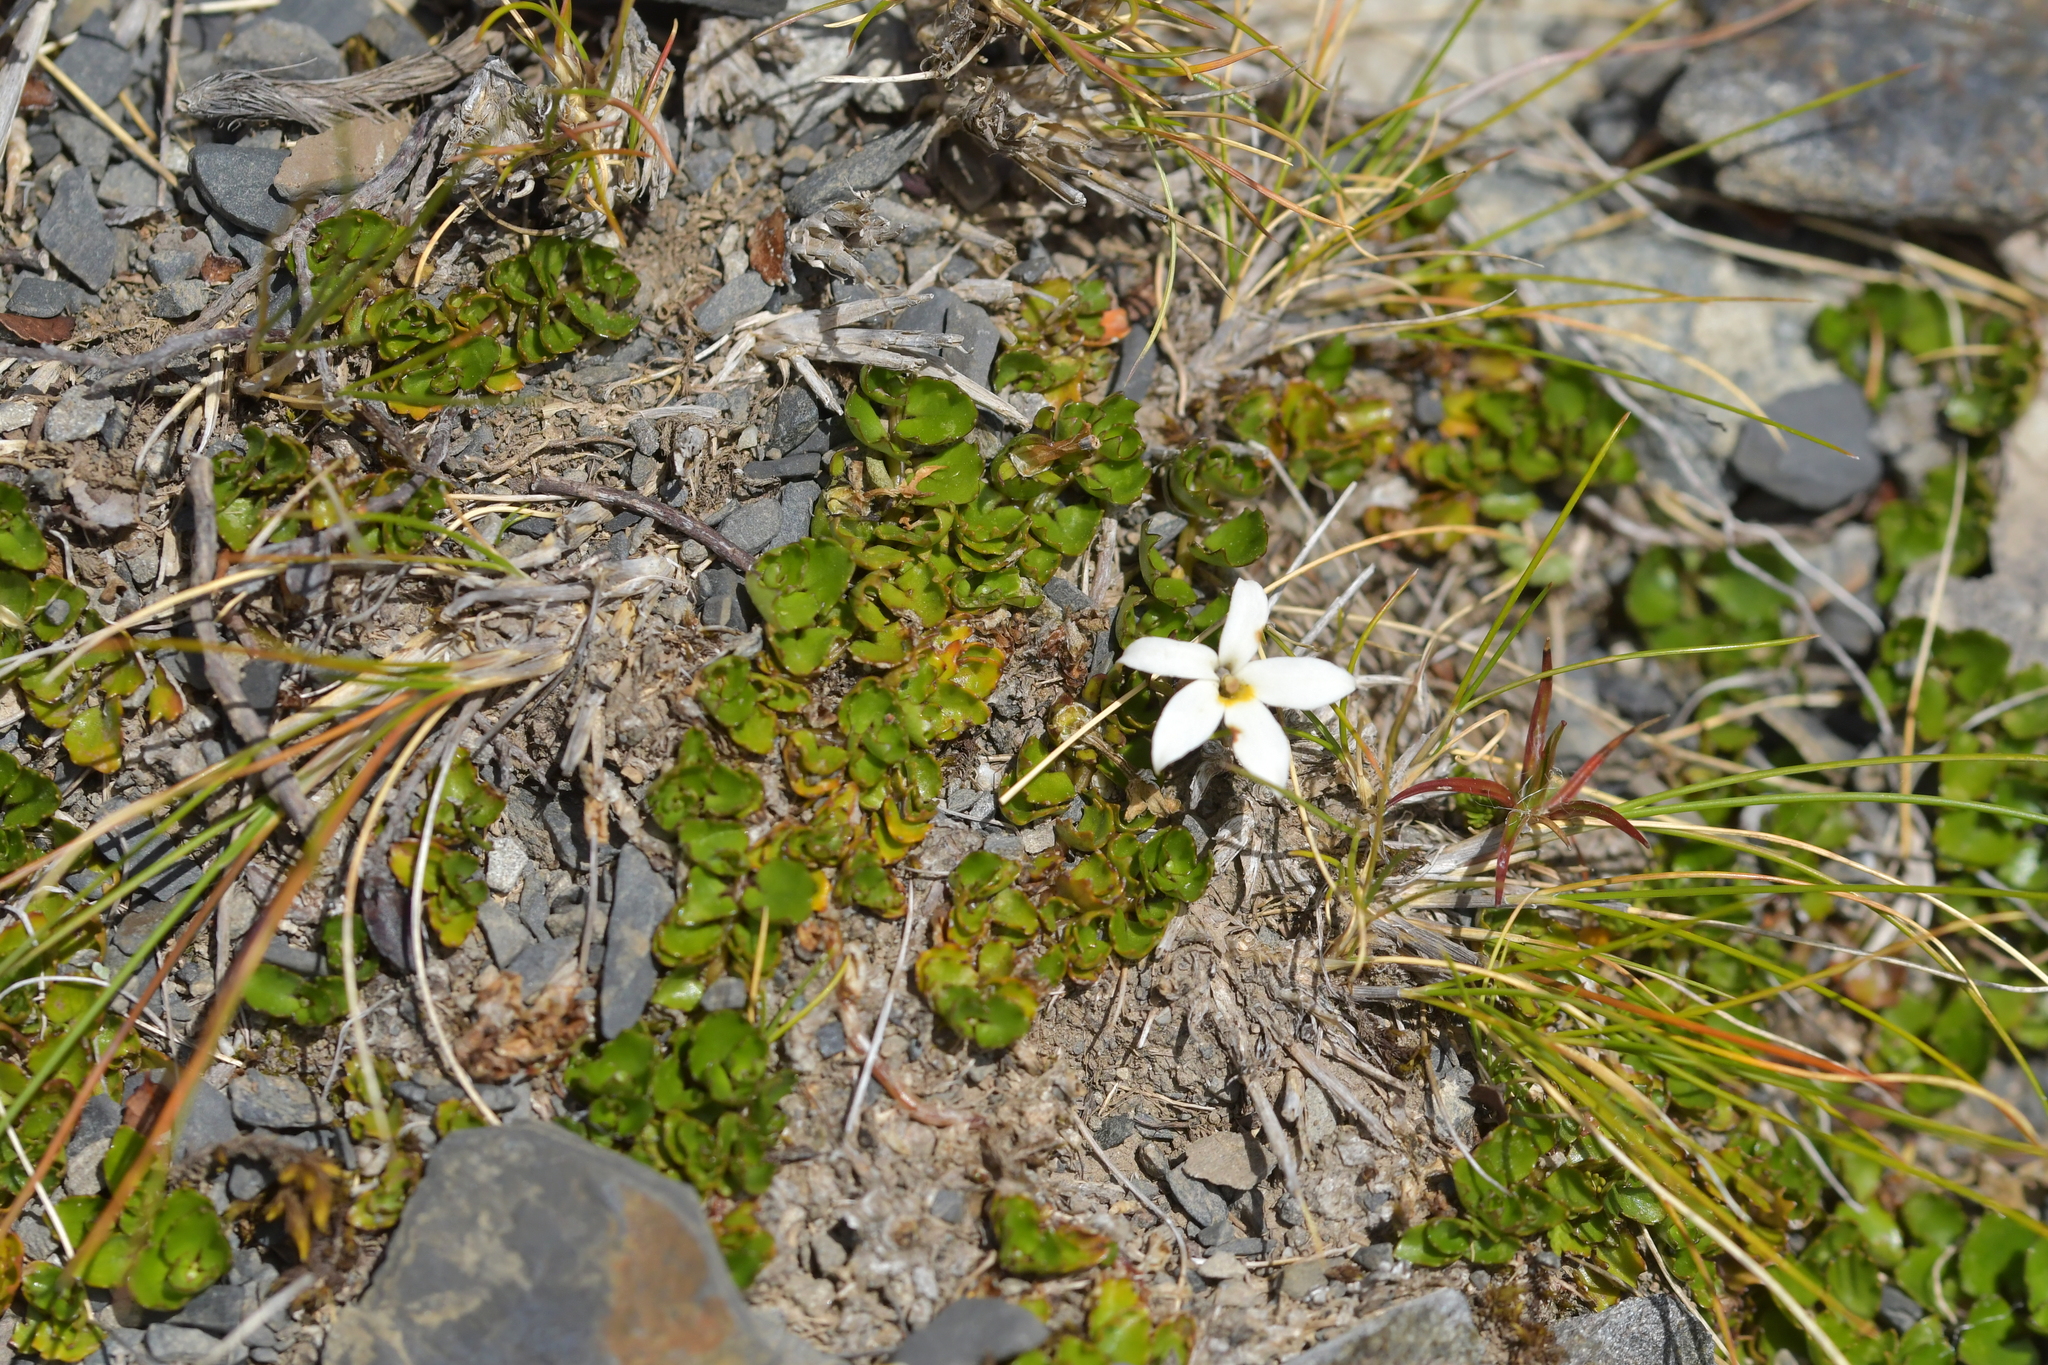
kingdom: Plantae
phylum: Tracheophyta
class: Magnoliopsida
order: Asterales
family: Campanulaceae
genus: Lobelia
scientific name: Lobelia macrodon
